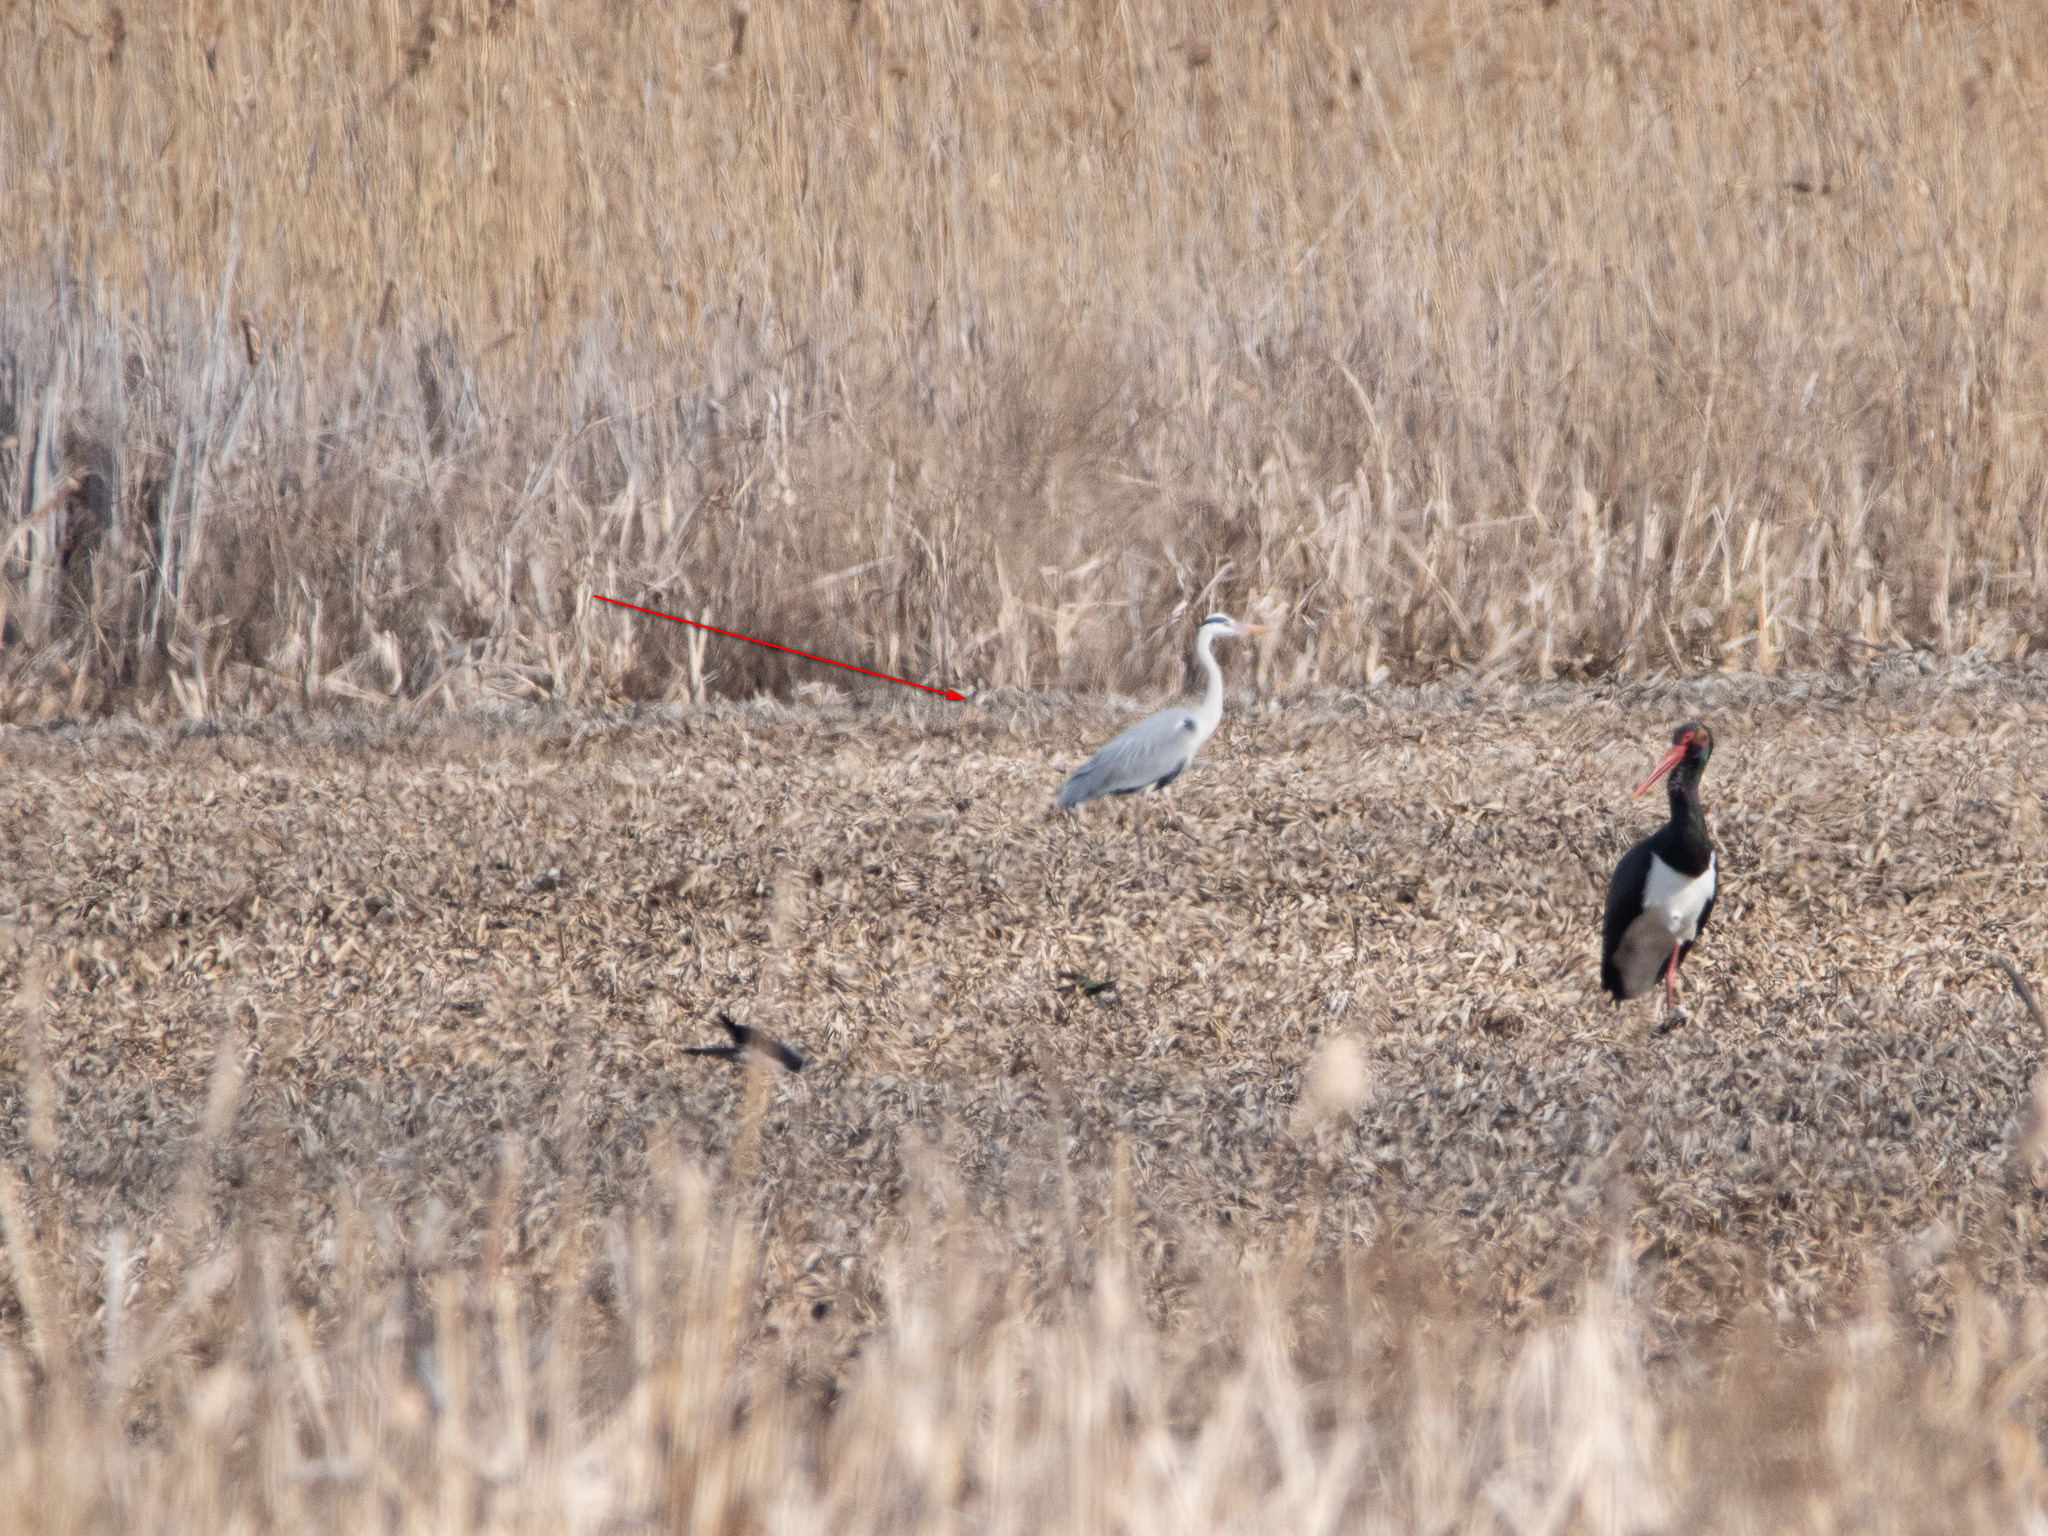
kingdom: Animalia
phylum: Chordata
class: Aves
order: Pelecaniformes
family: Ardeidae
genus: Ardea
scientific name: Ardea cinerea
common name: Grey heron
